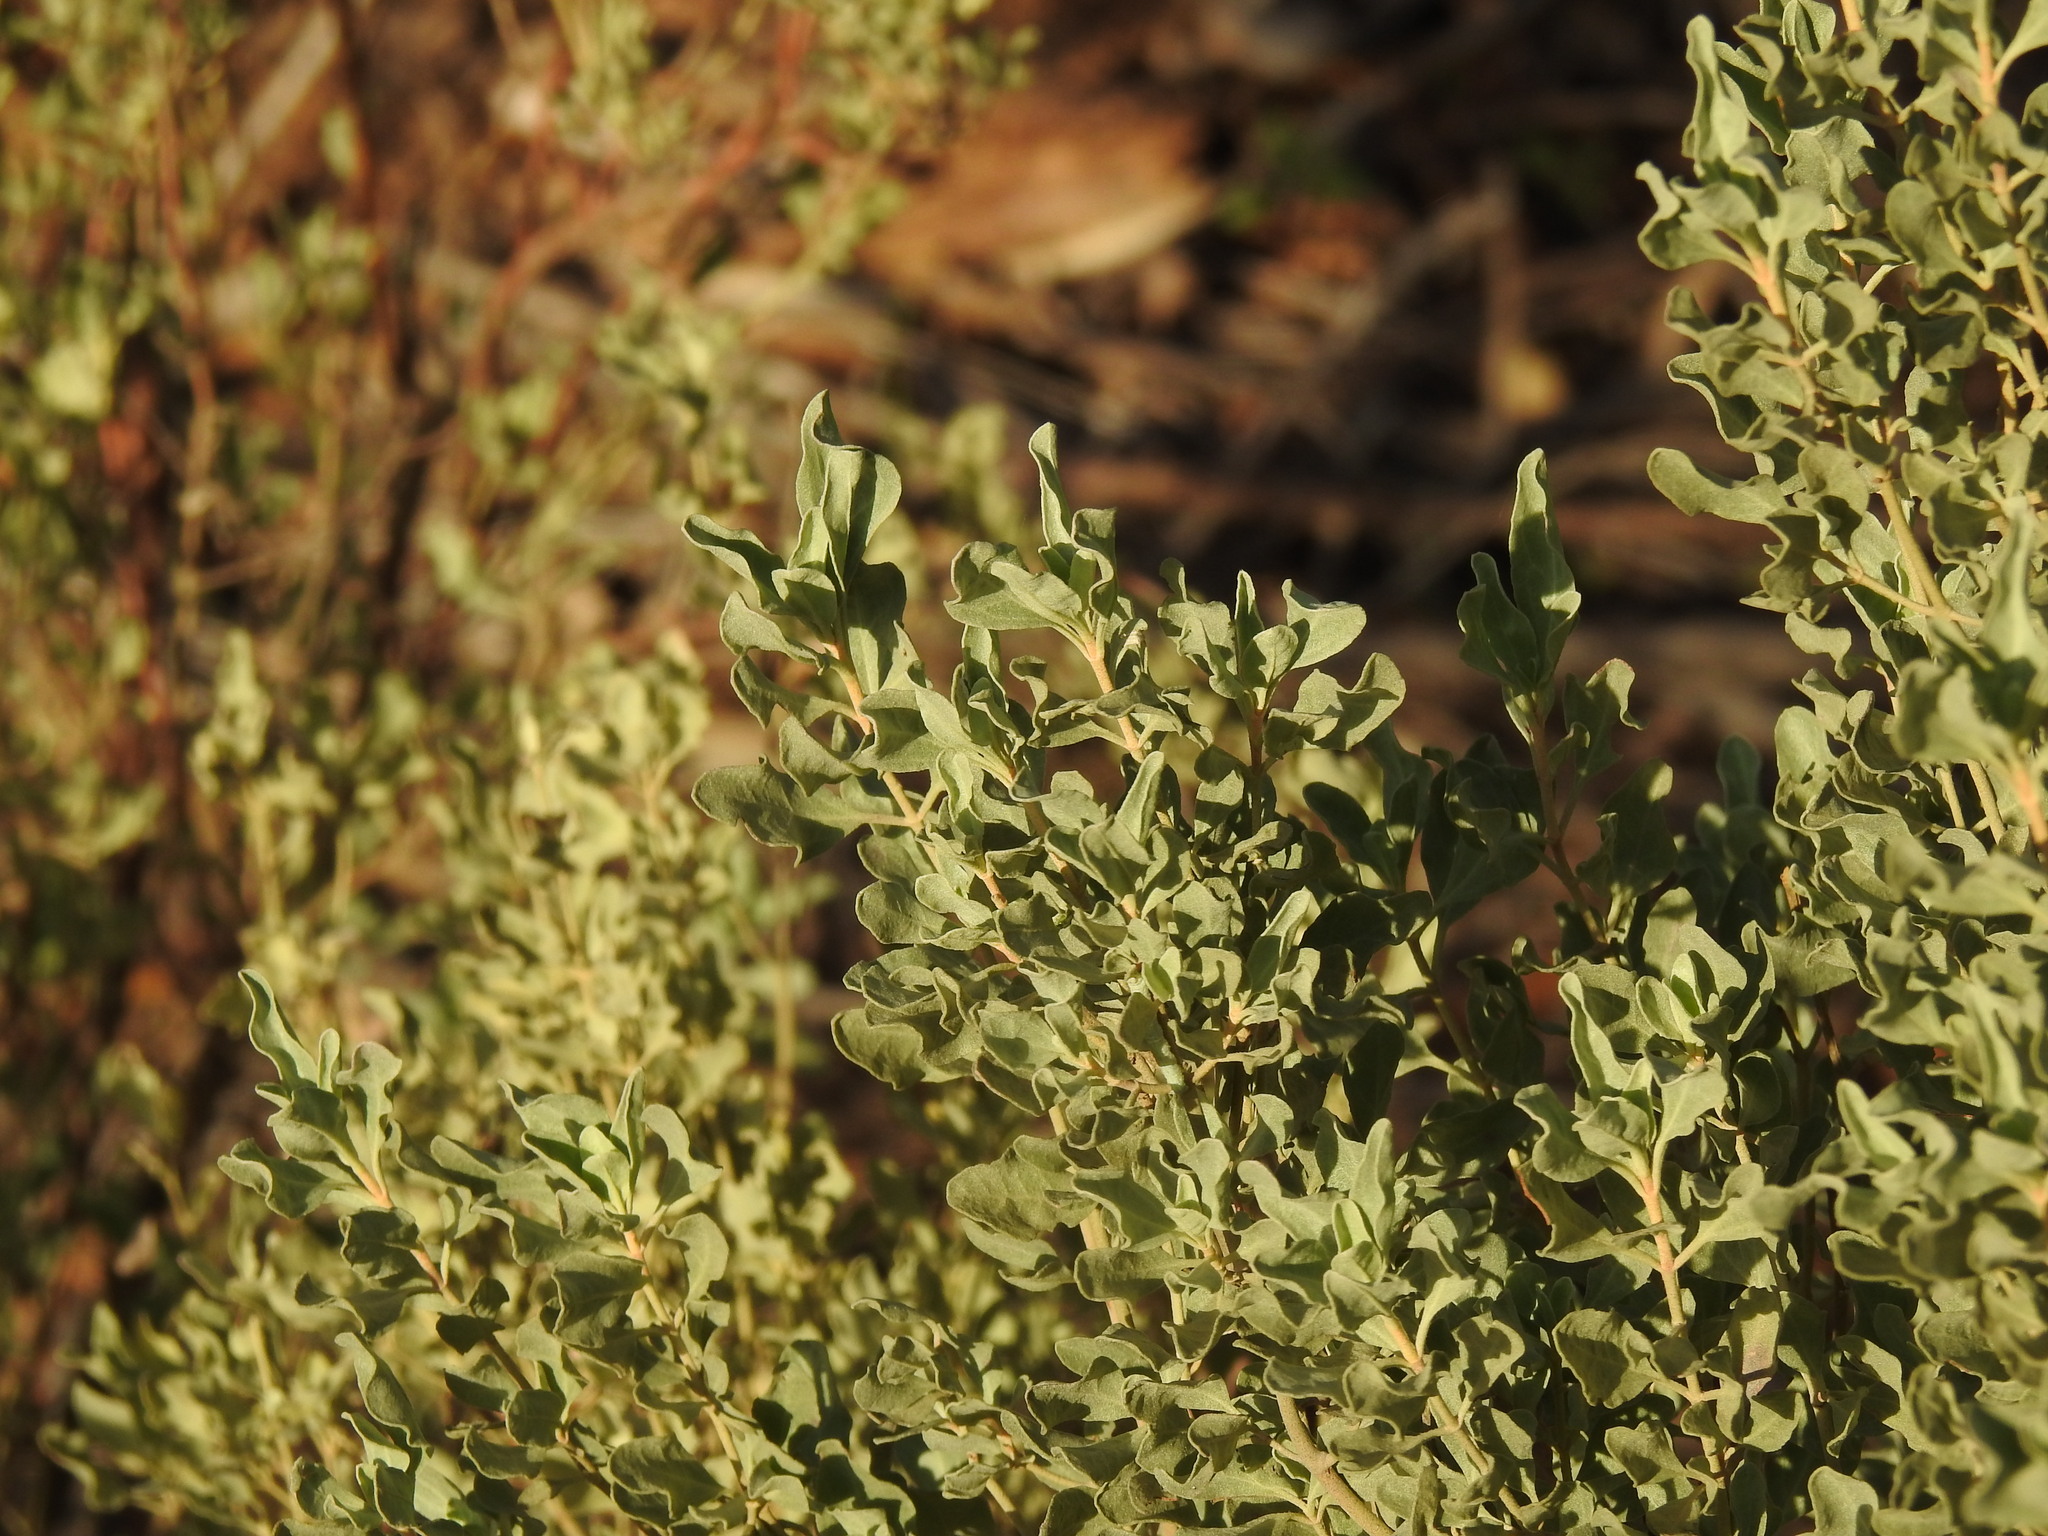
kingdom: Plantae
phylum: Tracheophyta
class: Magnoliopsida
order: Malvales
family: Cistaceae
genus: Halimium
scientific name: Halimium halimifolium
